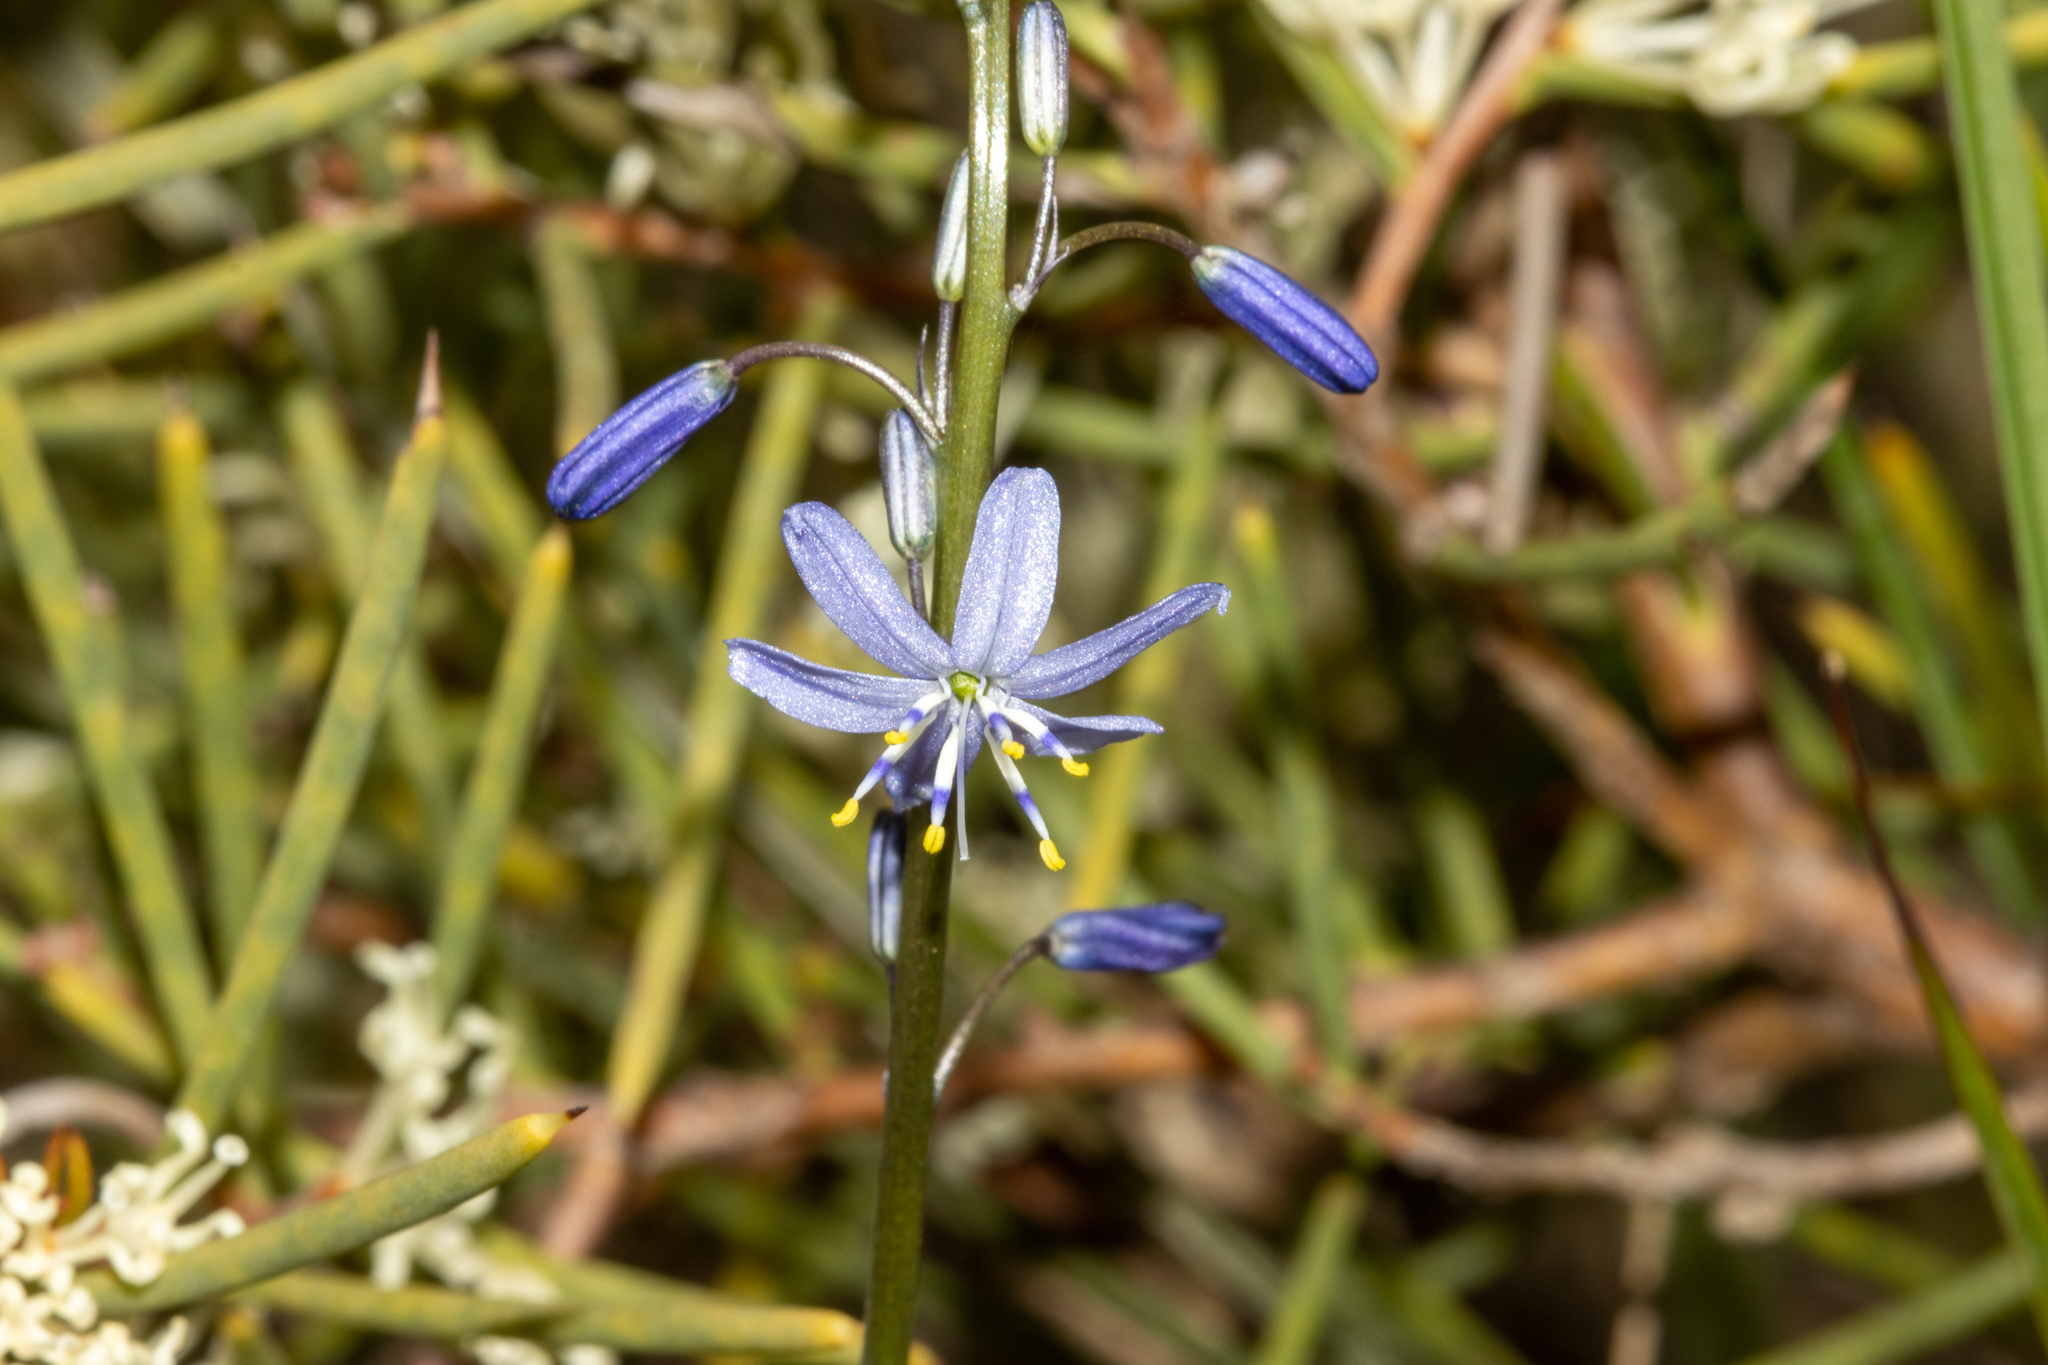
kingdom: Plantae
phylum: Tracheophyta
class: Liliopsida
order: Asparagales
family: Asphodelaceae
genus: Caesia
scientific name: Caesia calliantha
